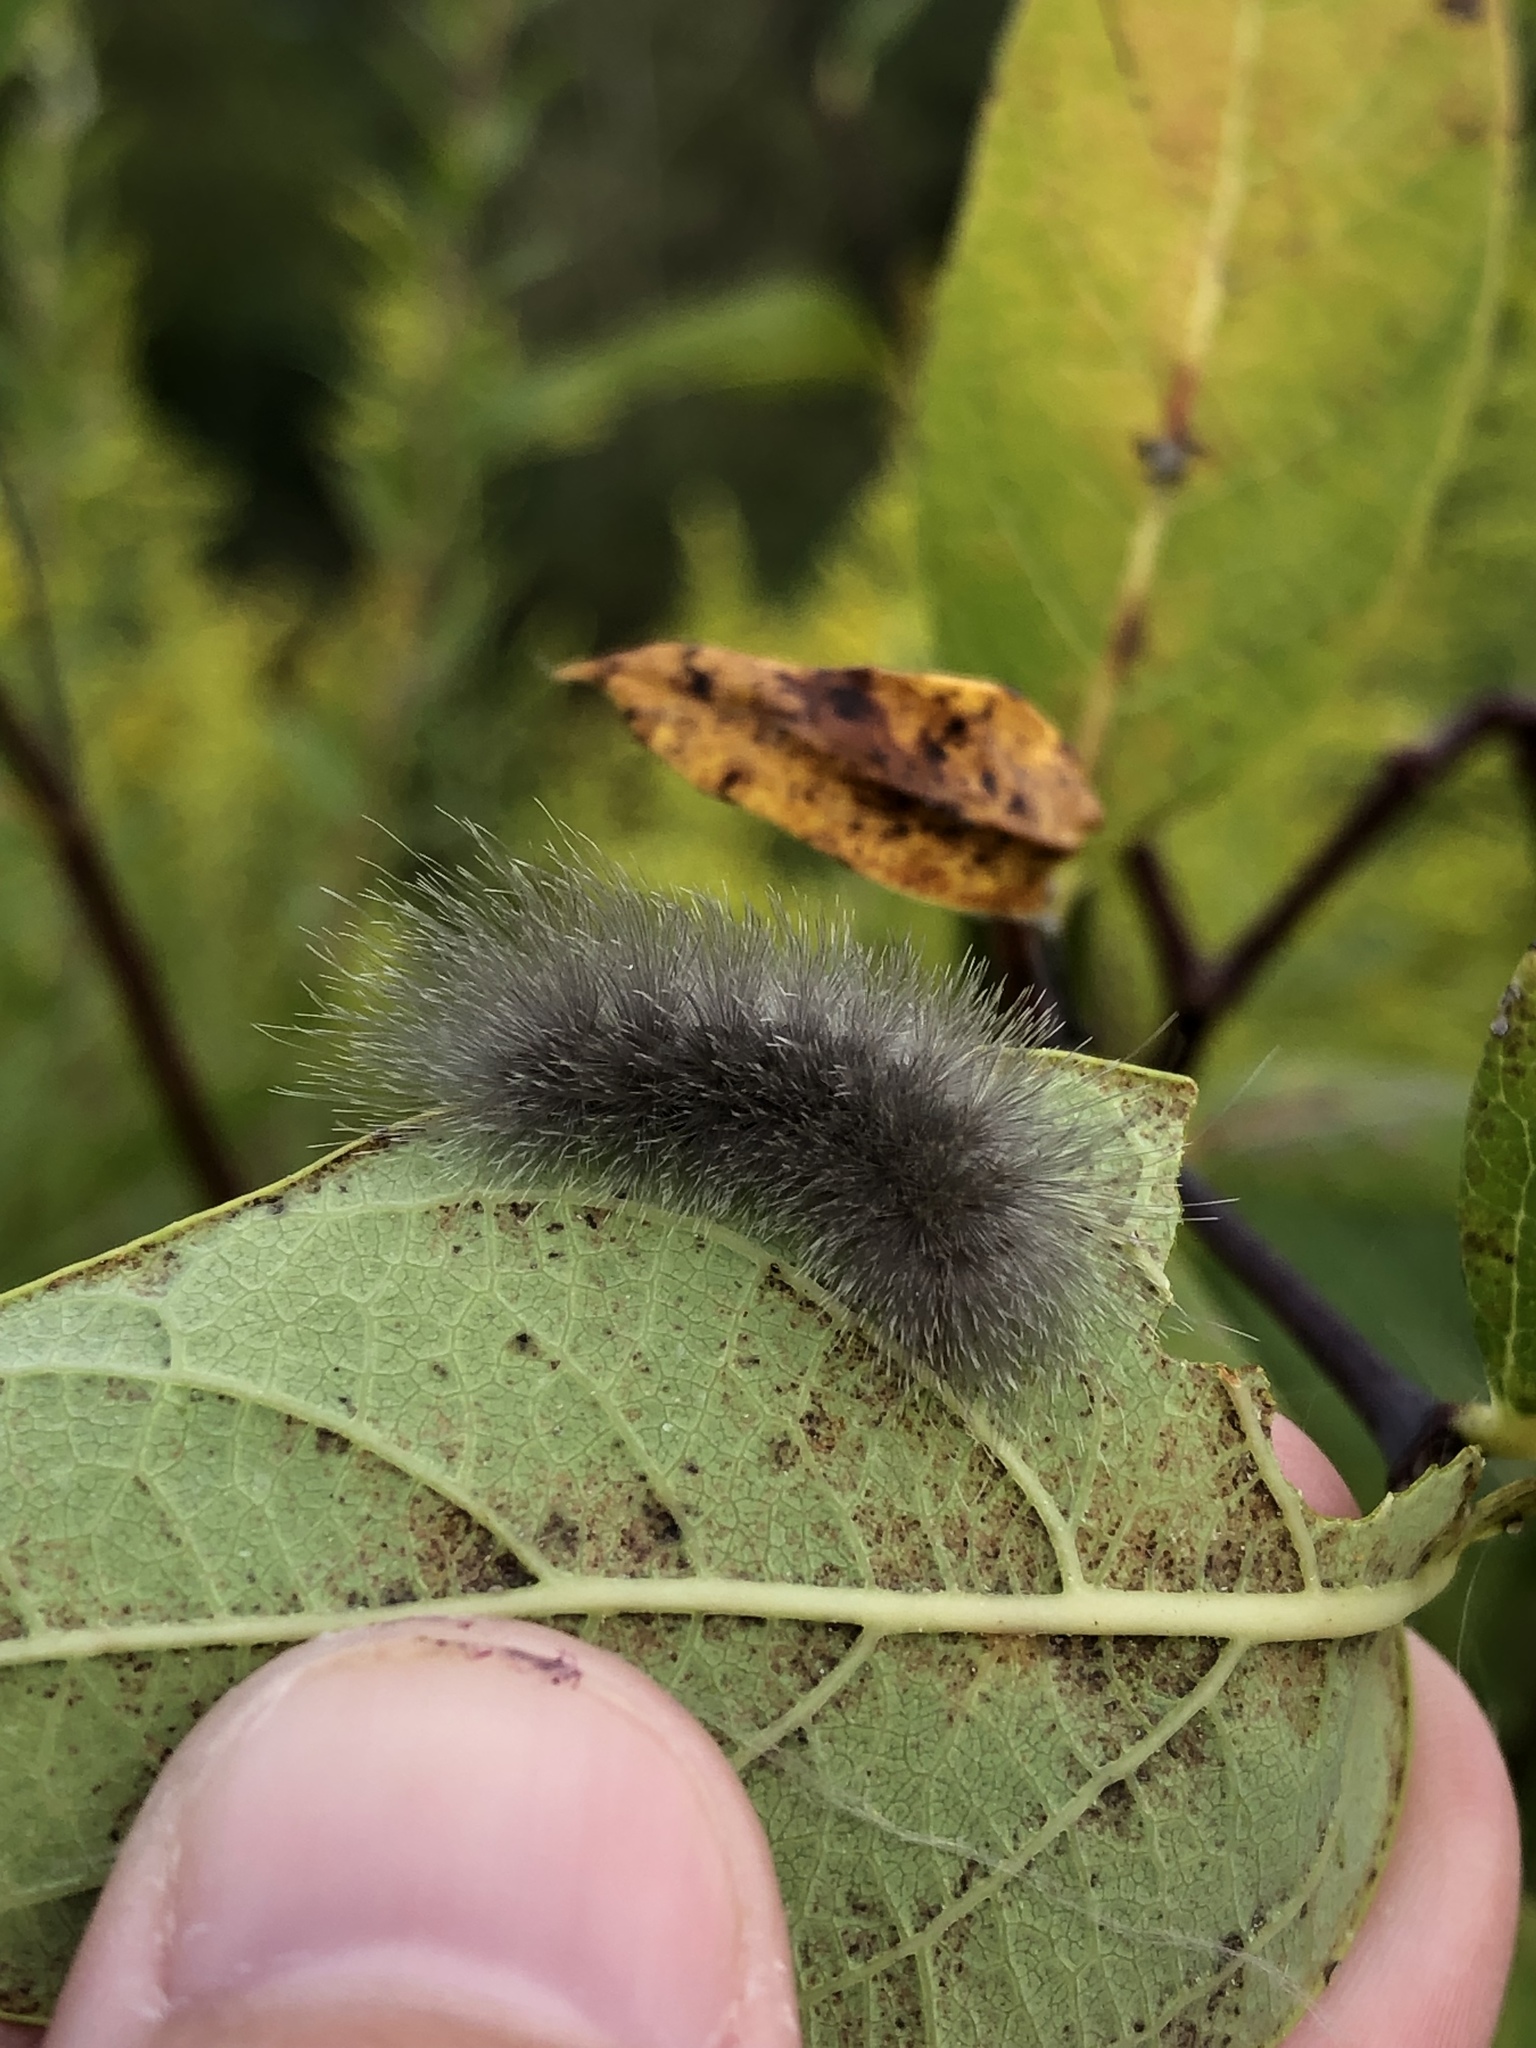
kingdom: Animalia
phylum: Arthropoda
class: Insecta
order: Lepidoptera
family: Erebidae
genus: Cycnia
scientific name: Cycnia tenera
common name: Delicate cycnia moth
